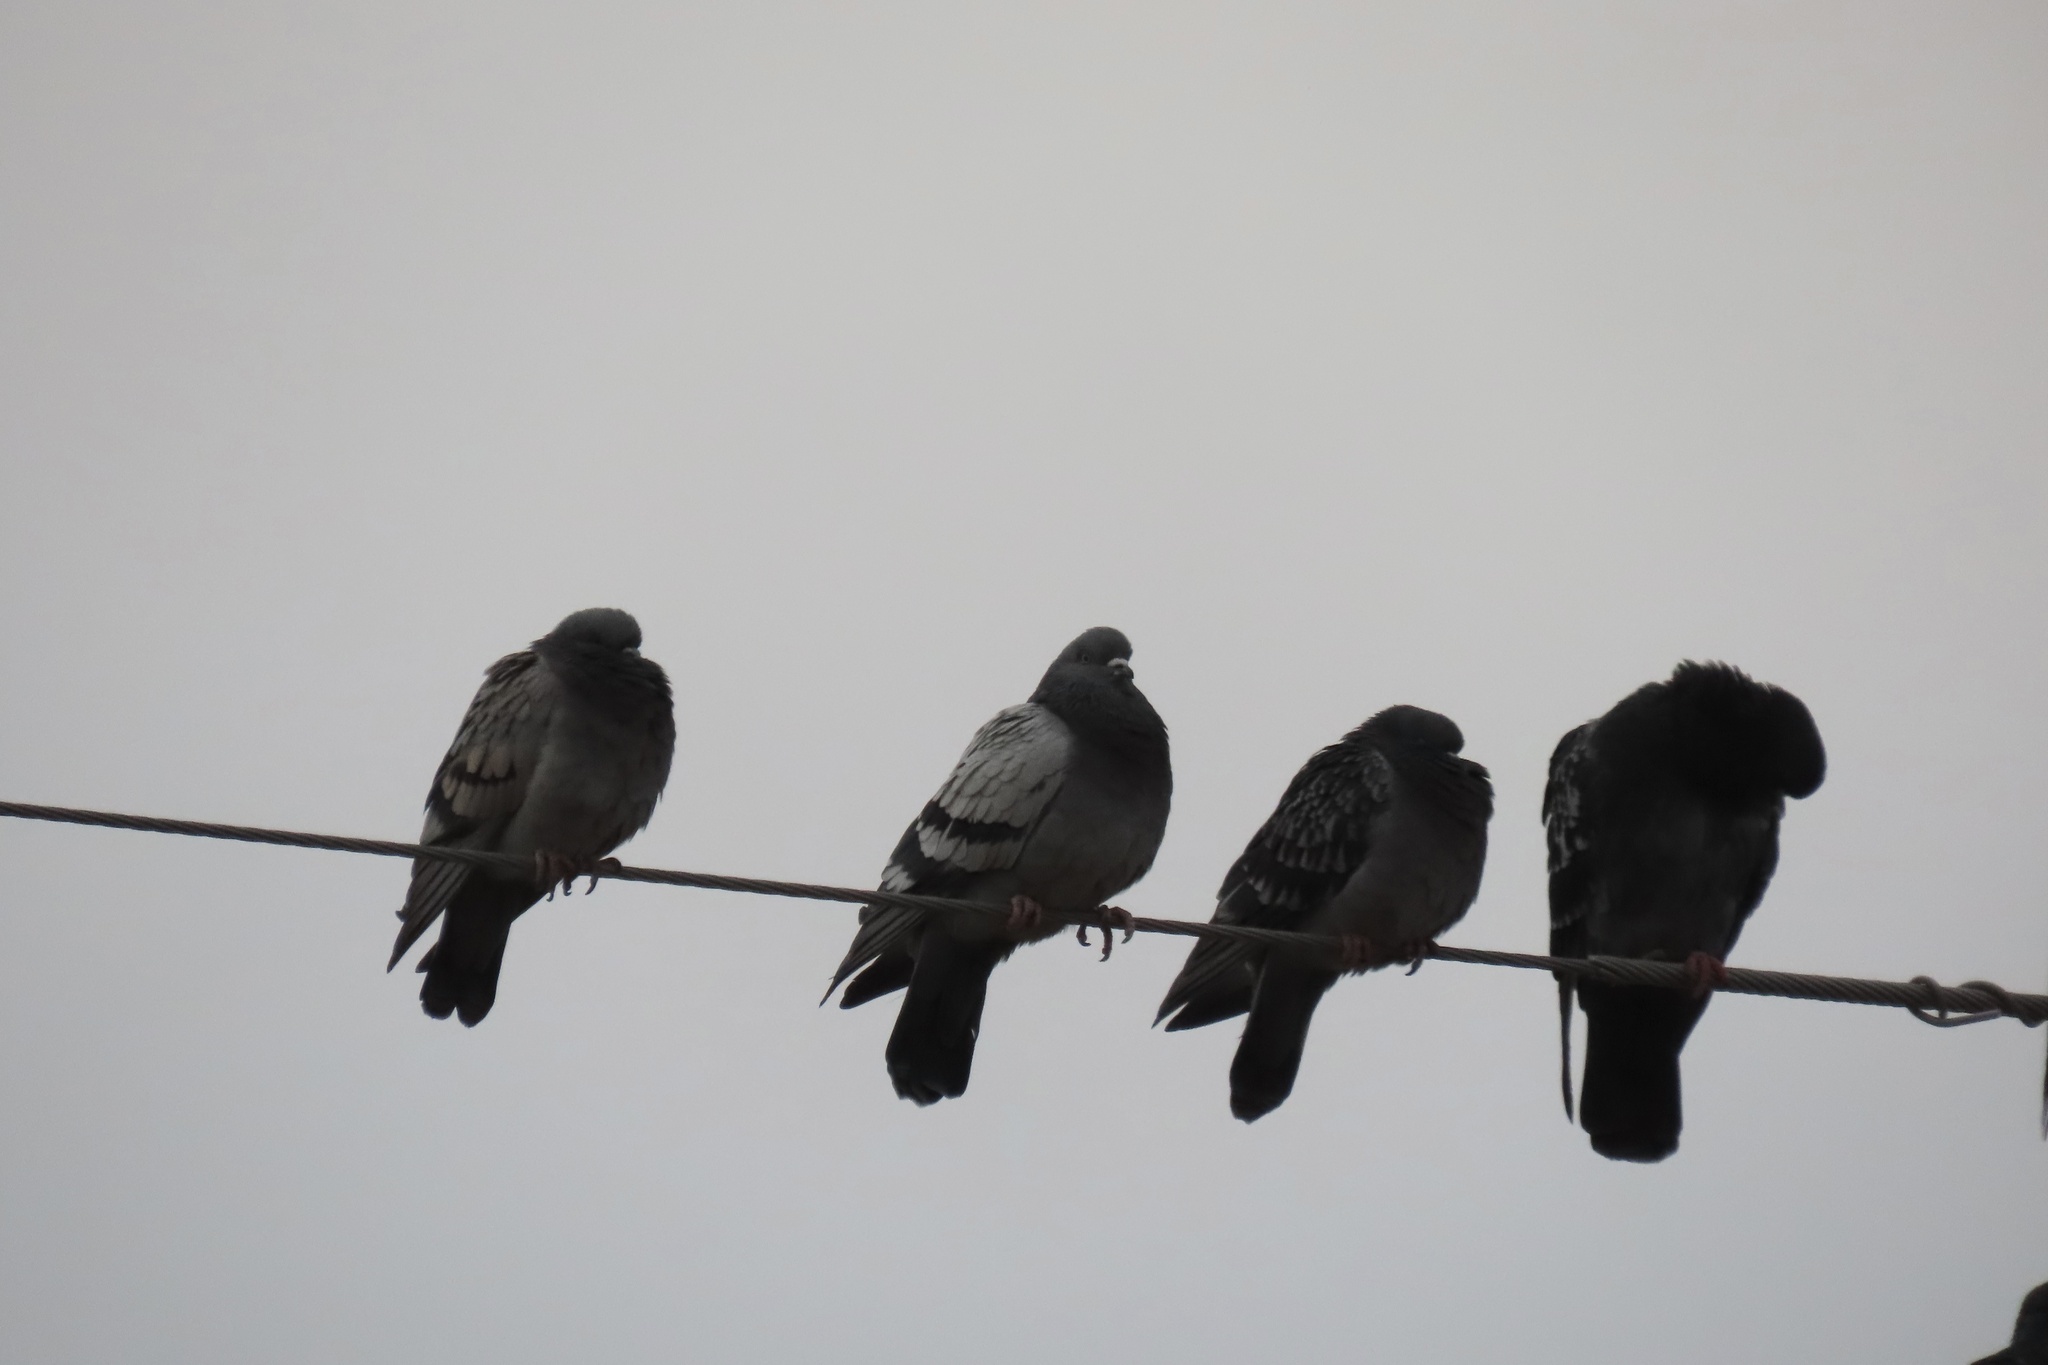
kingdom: Animalia
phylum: Chordata
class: Aves
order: Columbiformes
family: Columbidae
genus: Columba
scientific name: Columba livia
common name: Rock pigeon
